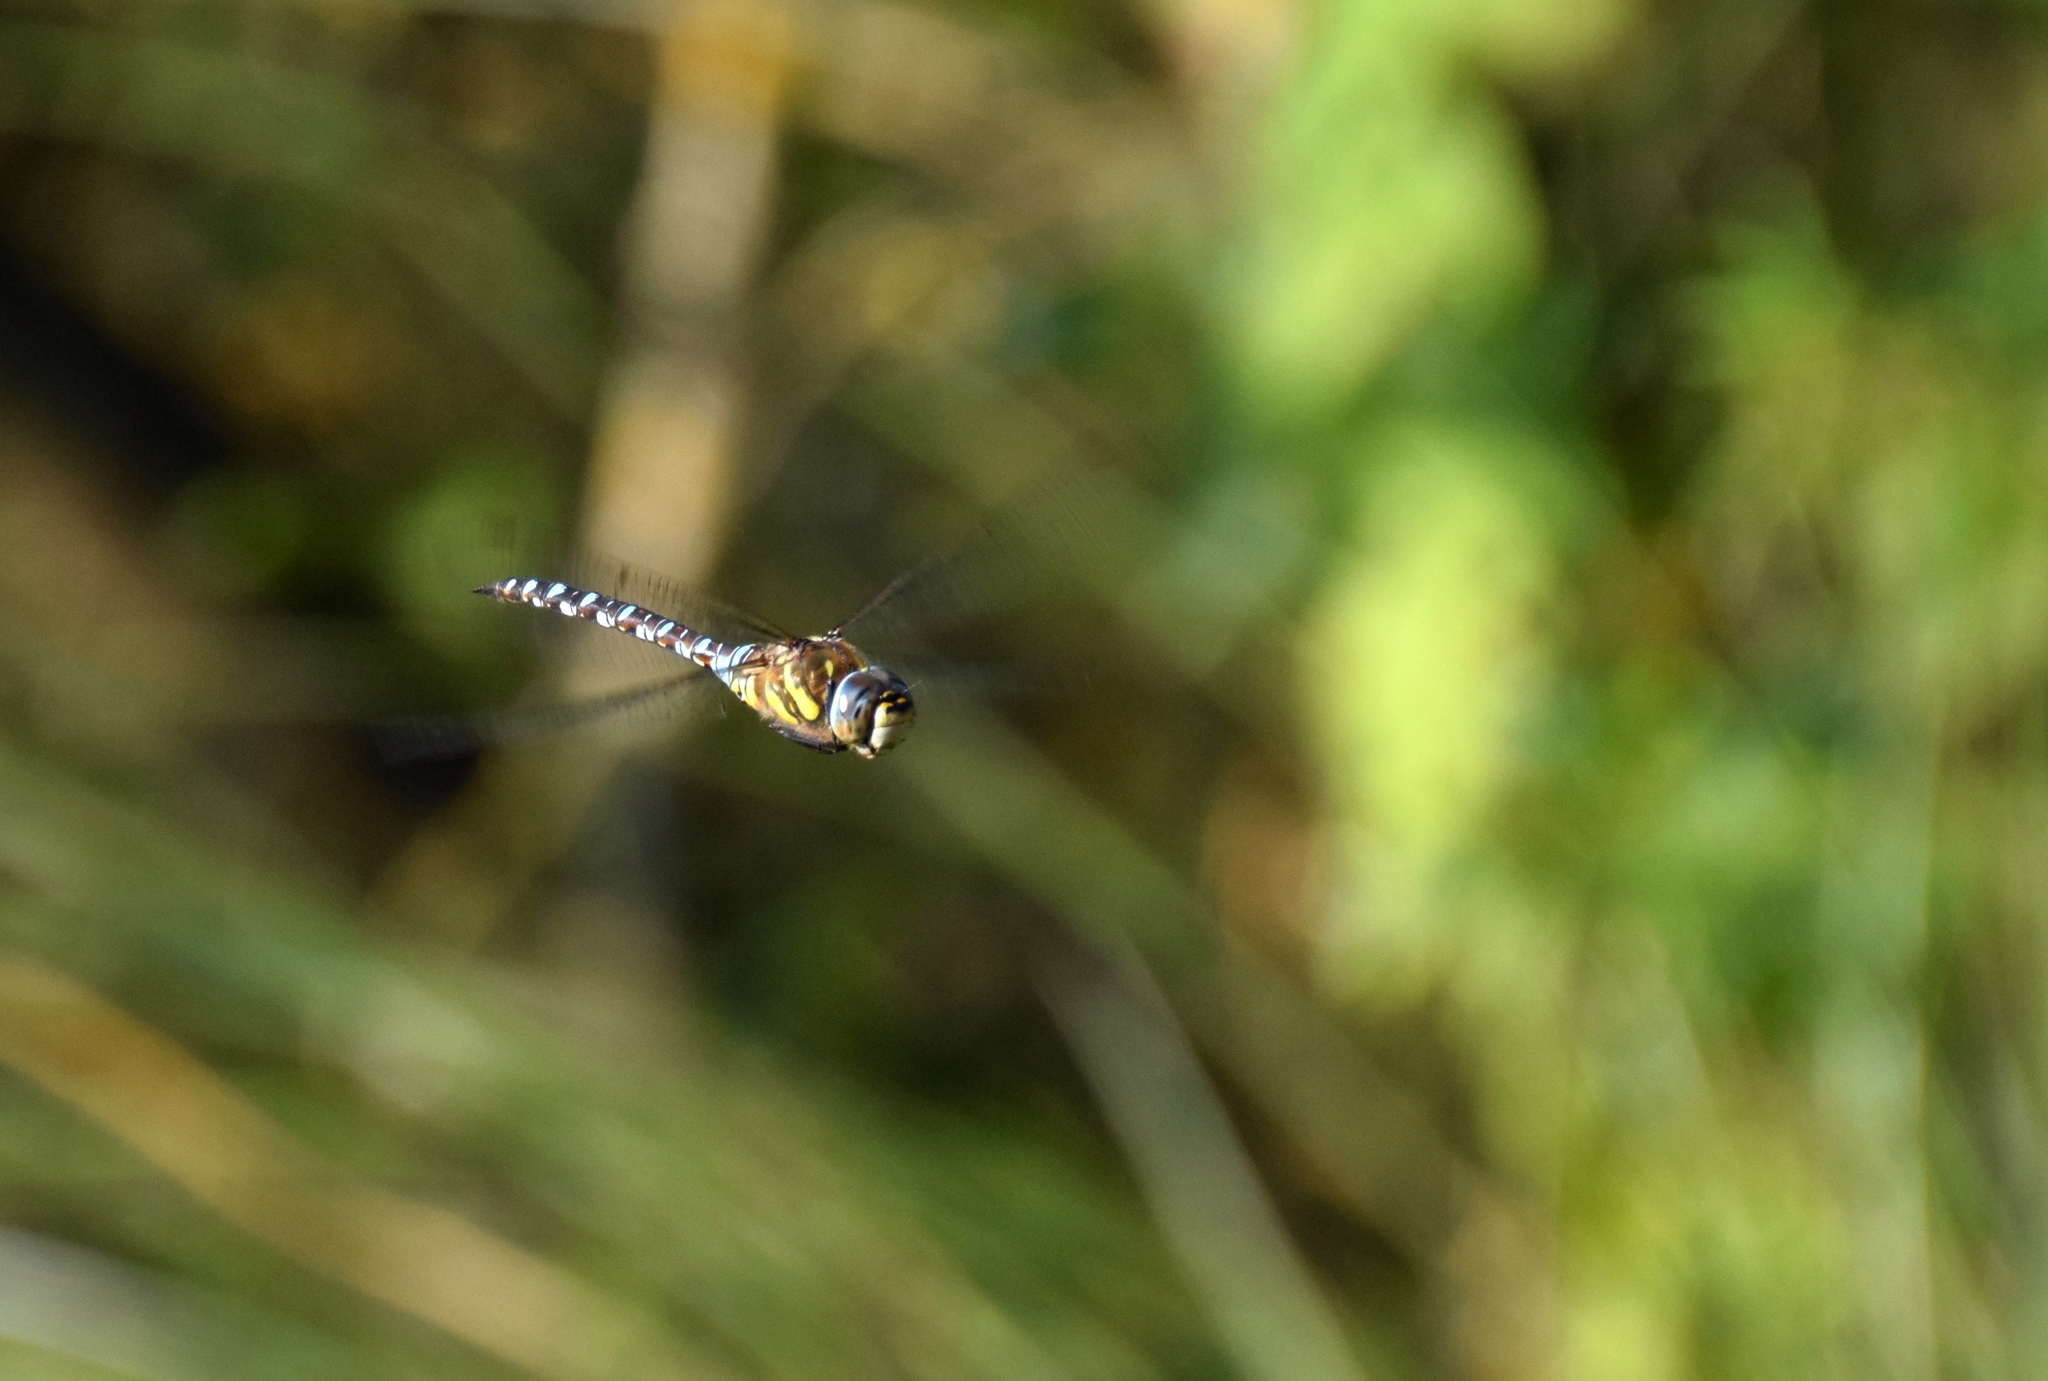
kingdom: Animalia
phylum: Arthropoda
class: Insecta
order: Odonata
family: Aeshnidae
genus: Aeshna
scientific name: Aeshna mixta
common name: Migrant hawker
